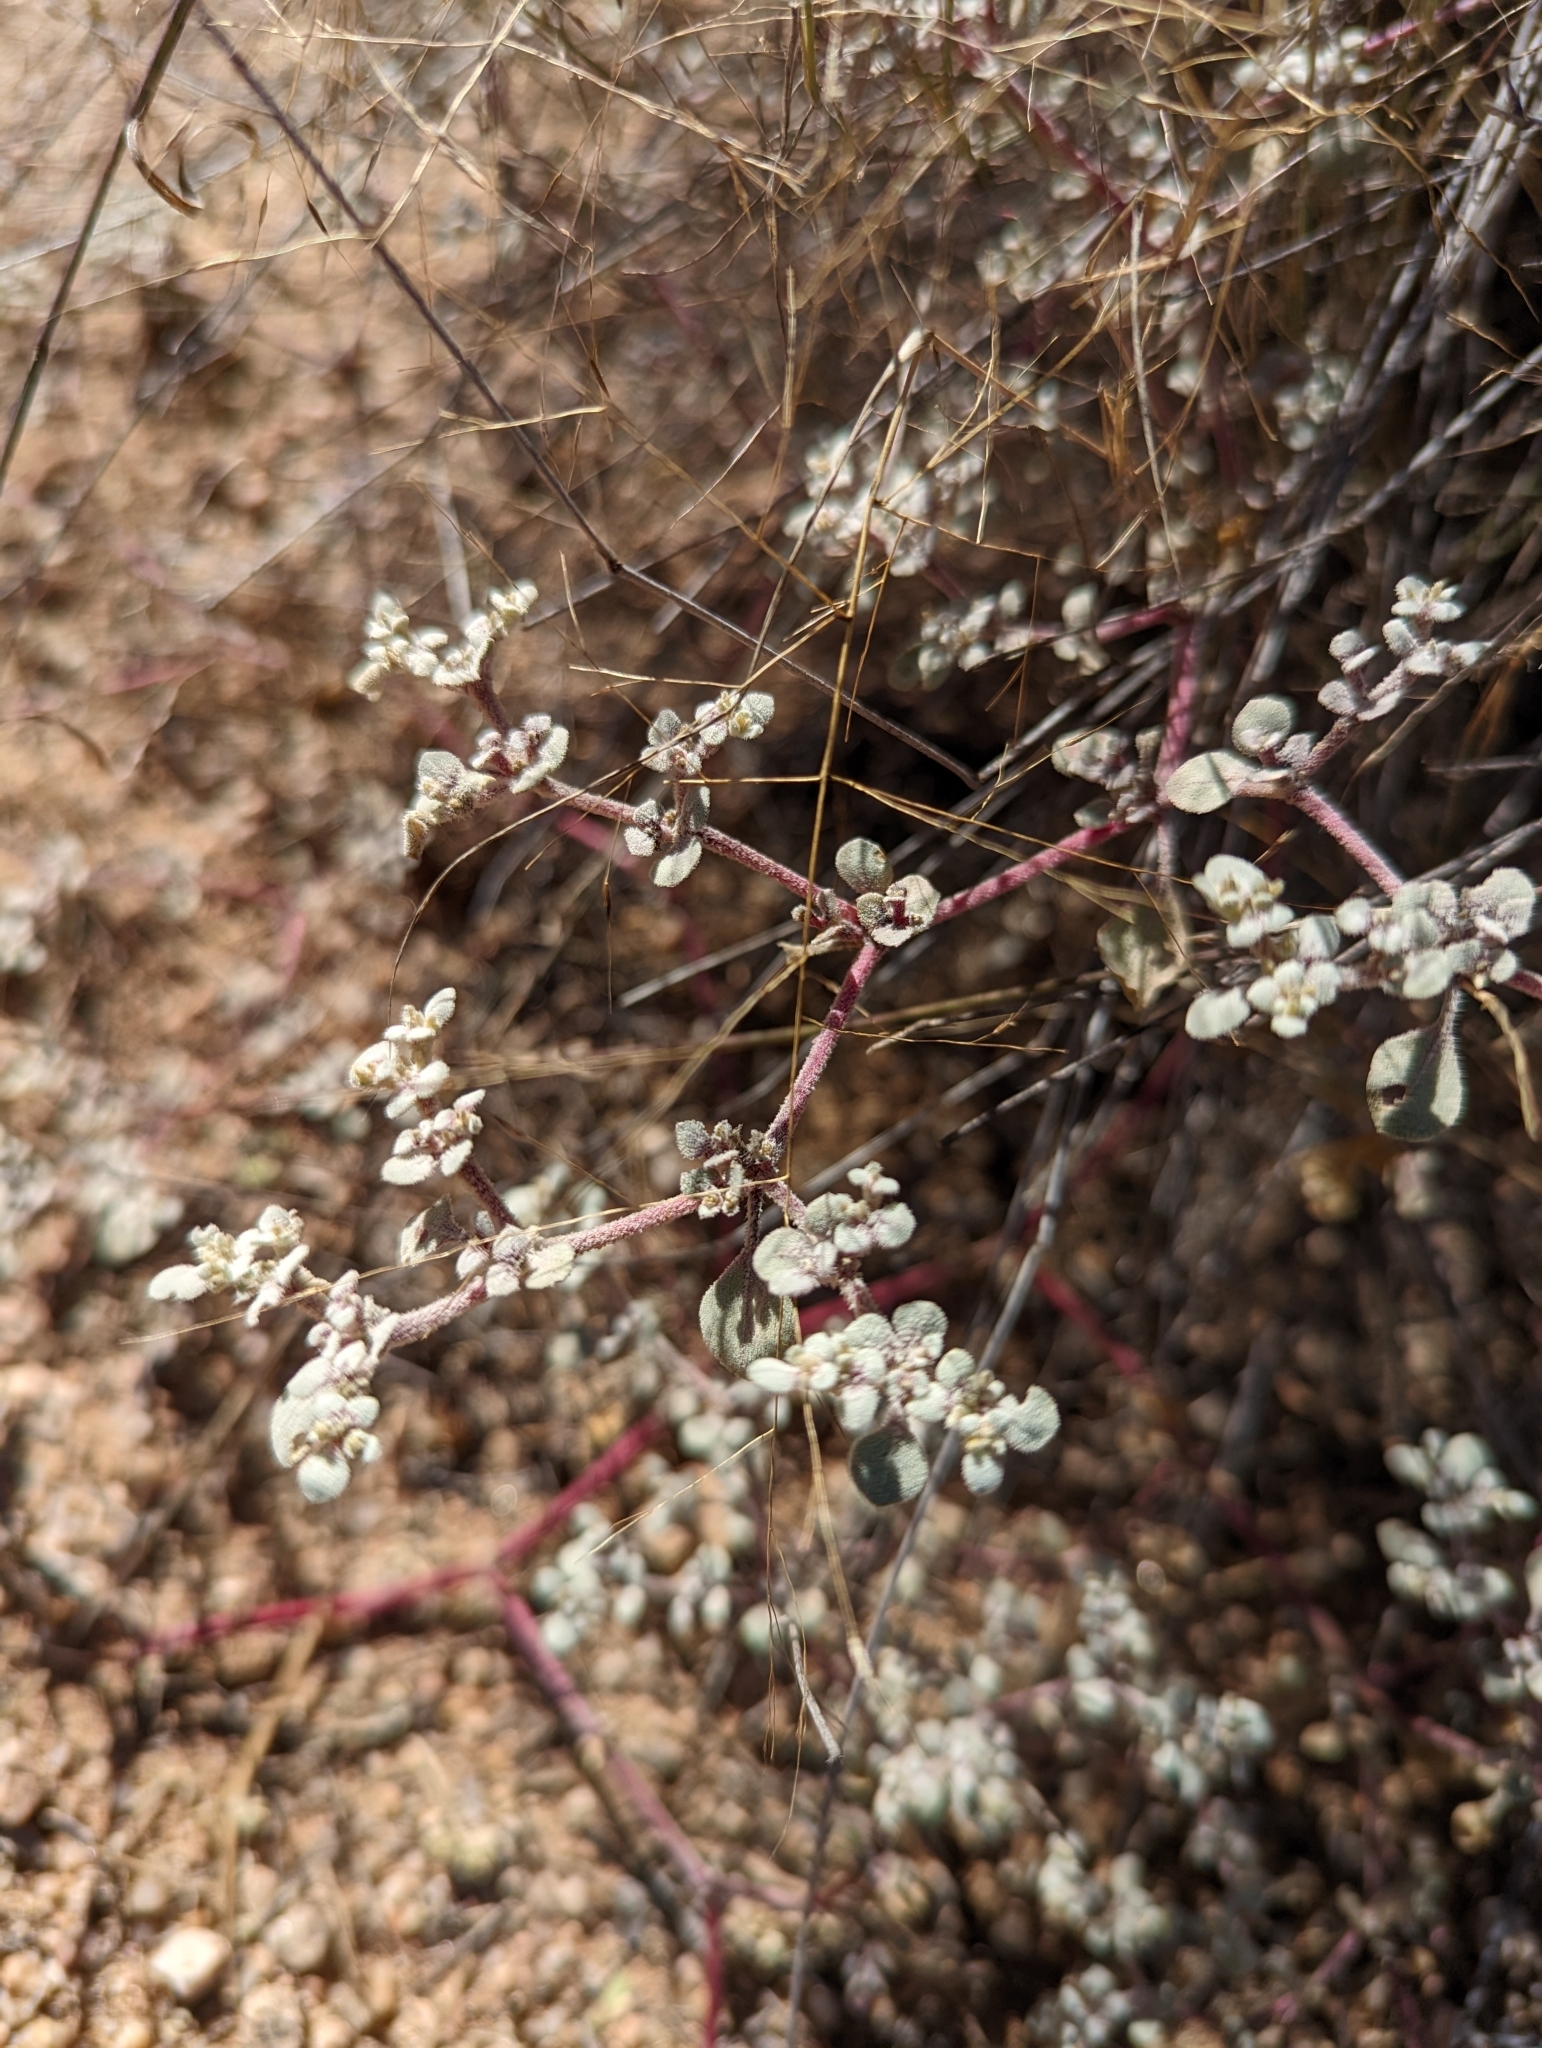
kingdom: Plantae
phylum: Tracheophyta
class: Magnoliopsida
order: Caryophyllales
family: Amaranthaceae
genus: Tidestromia
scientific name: Tidestromia lanuginosa
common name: Woolly tidestromia
